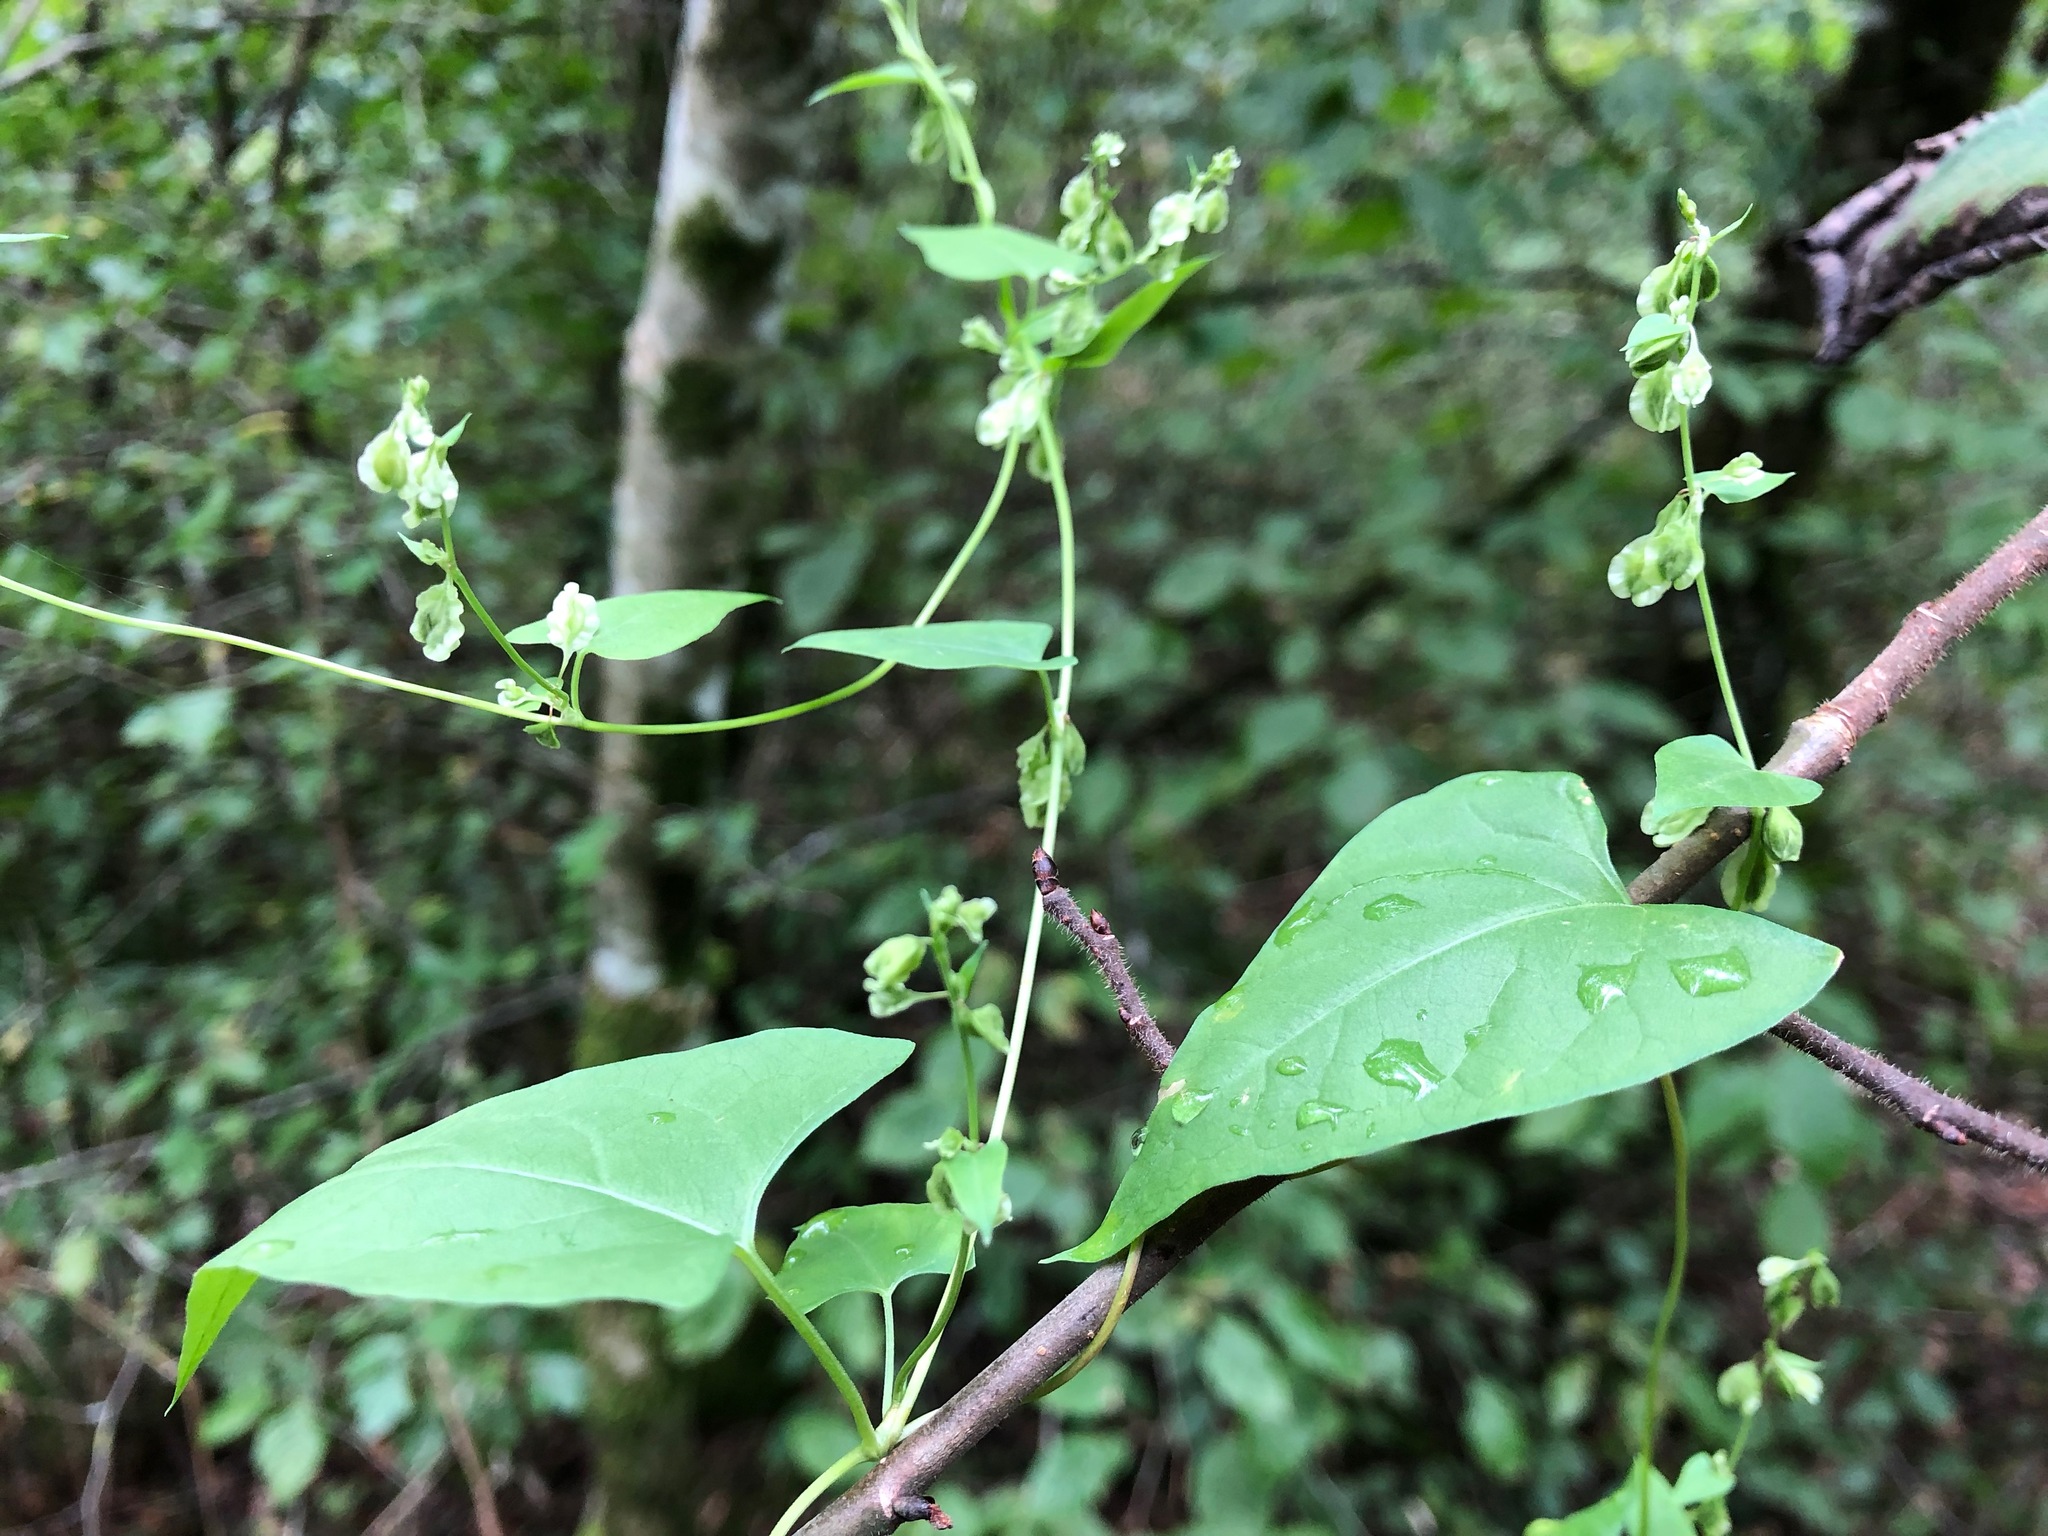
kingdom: Plantae
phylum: Tracheophyta
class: Magnoliopsida
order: Caryophyllales
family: Polygonaceae
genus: Fallopia
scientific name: Fallopia convolvulus
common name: Black bindweed
